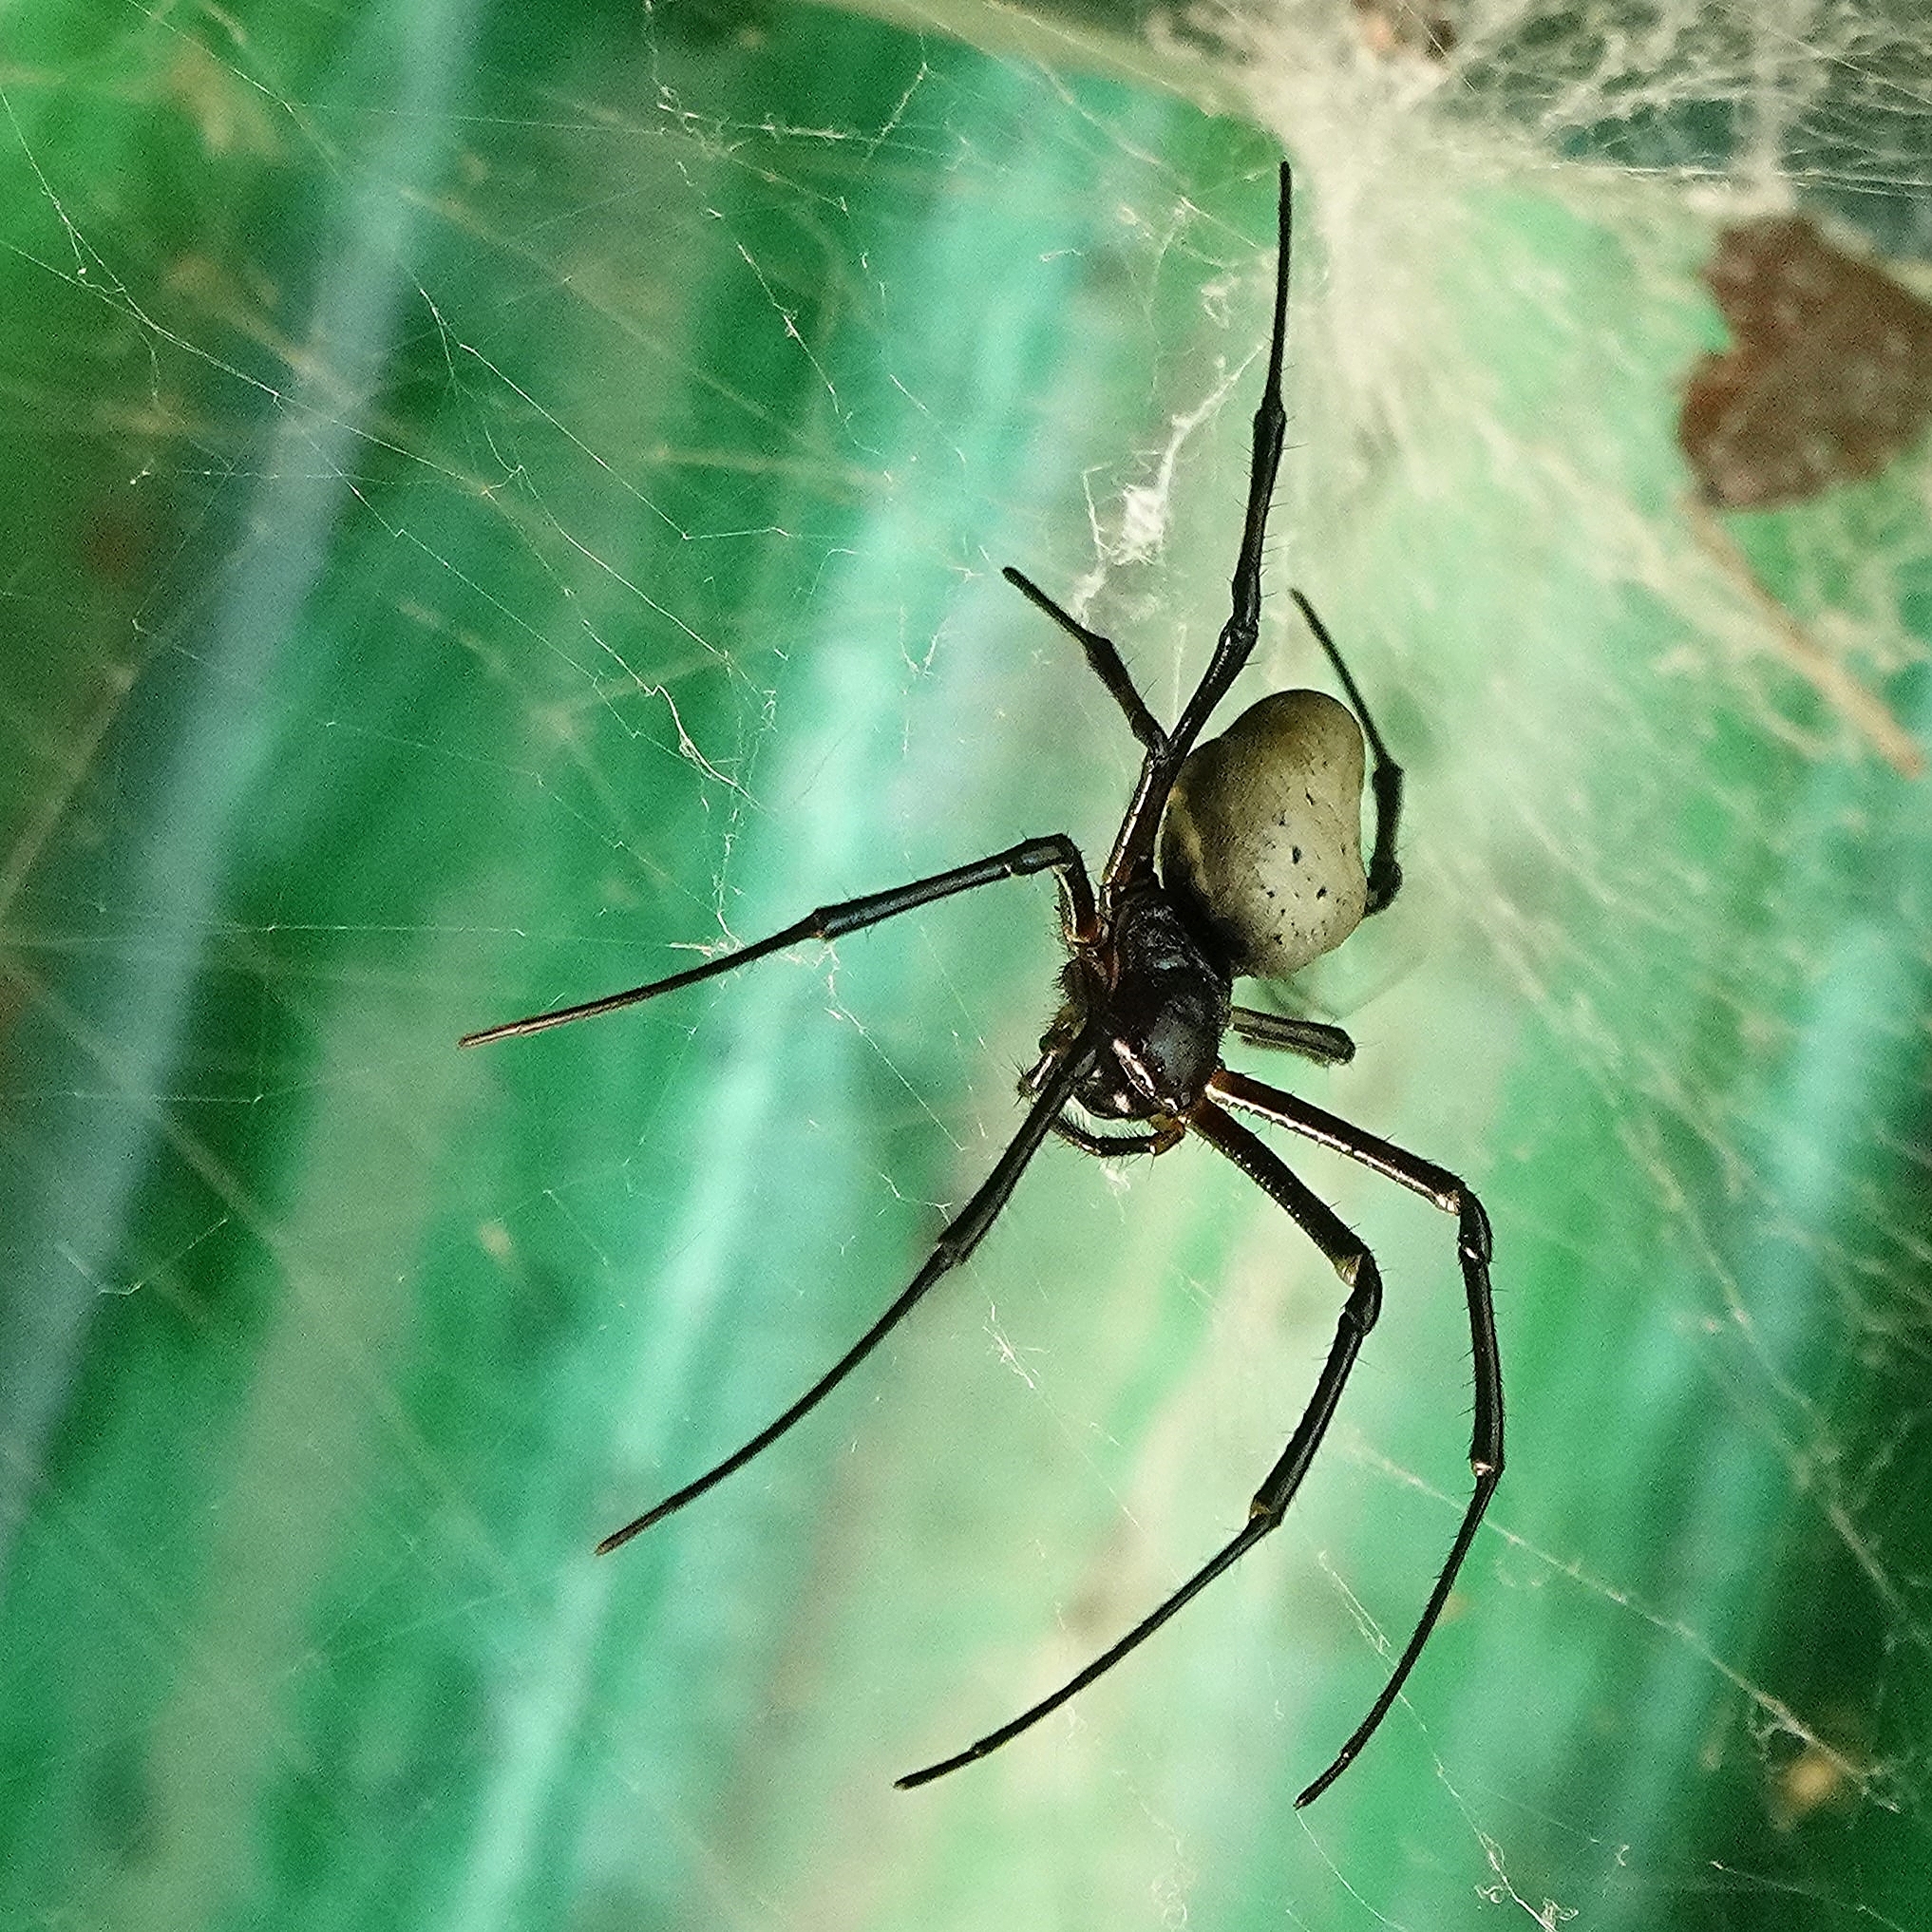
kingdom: Animalia
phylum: Arthropoda
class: Arachnida
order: Araneae
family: Araneidae
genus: Nephilingis
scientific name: Nephilingis livida
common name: Madagascar hermit spider
